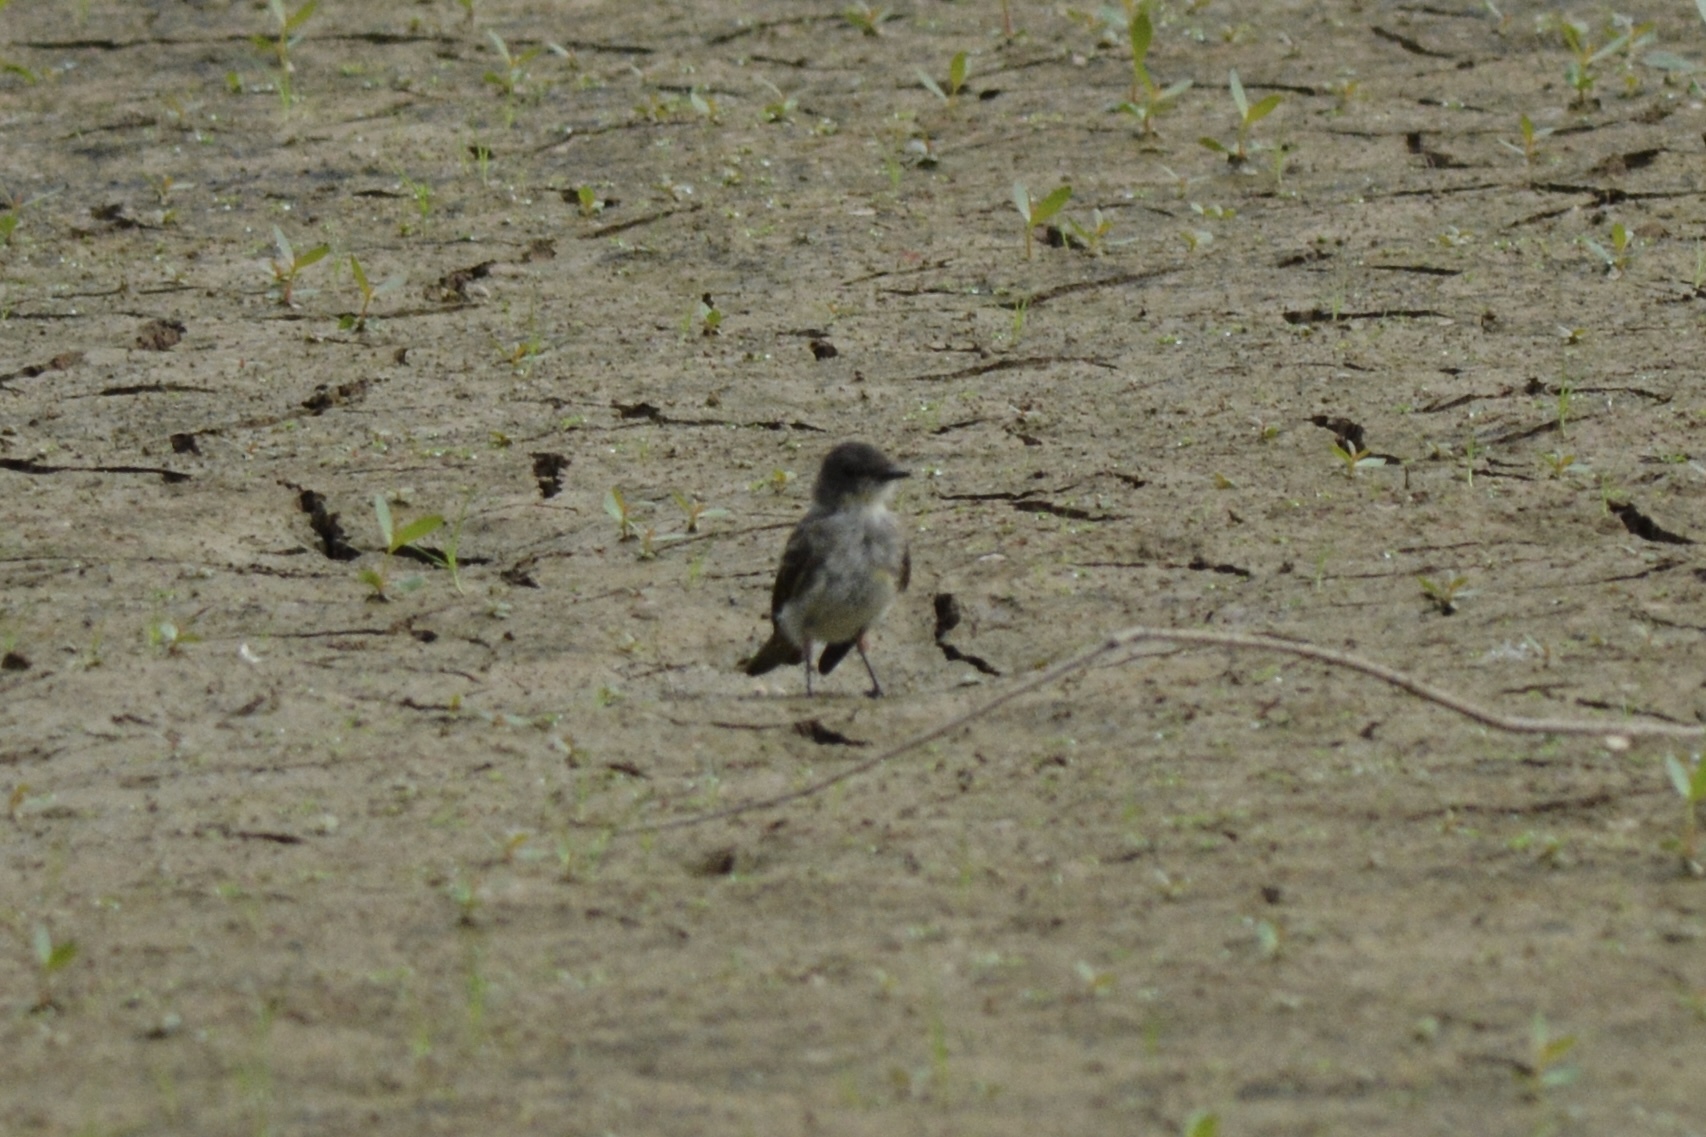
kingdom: Animalia
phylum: Chordata
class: Aves
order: Passeriformes
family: Tyrannidae
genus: Sayornis
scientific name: Sayornis phoebe
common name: Eastern phoebe
